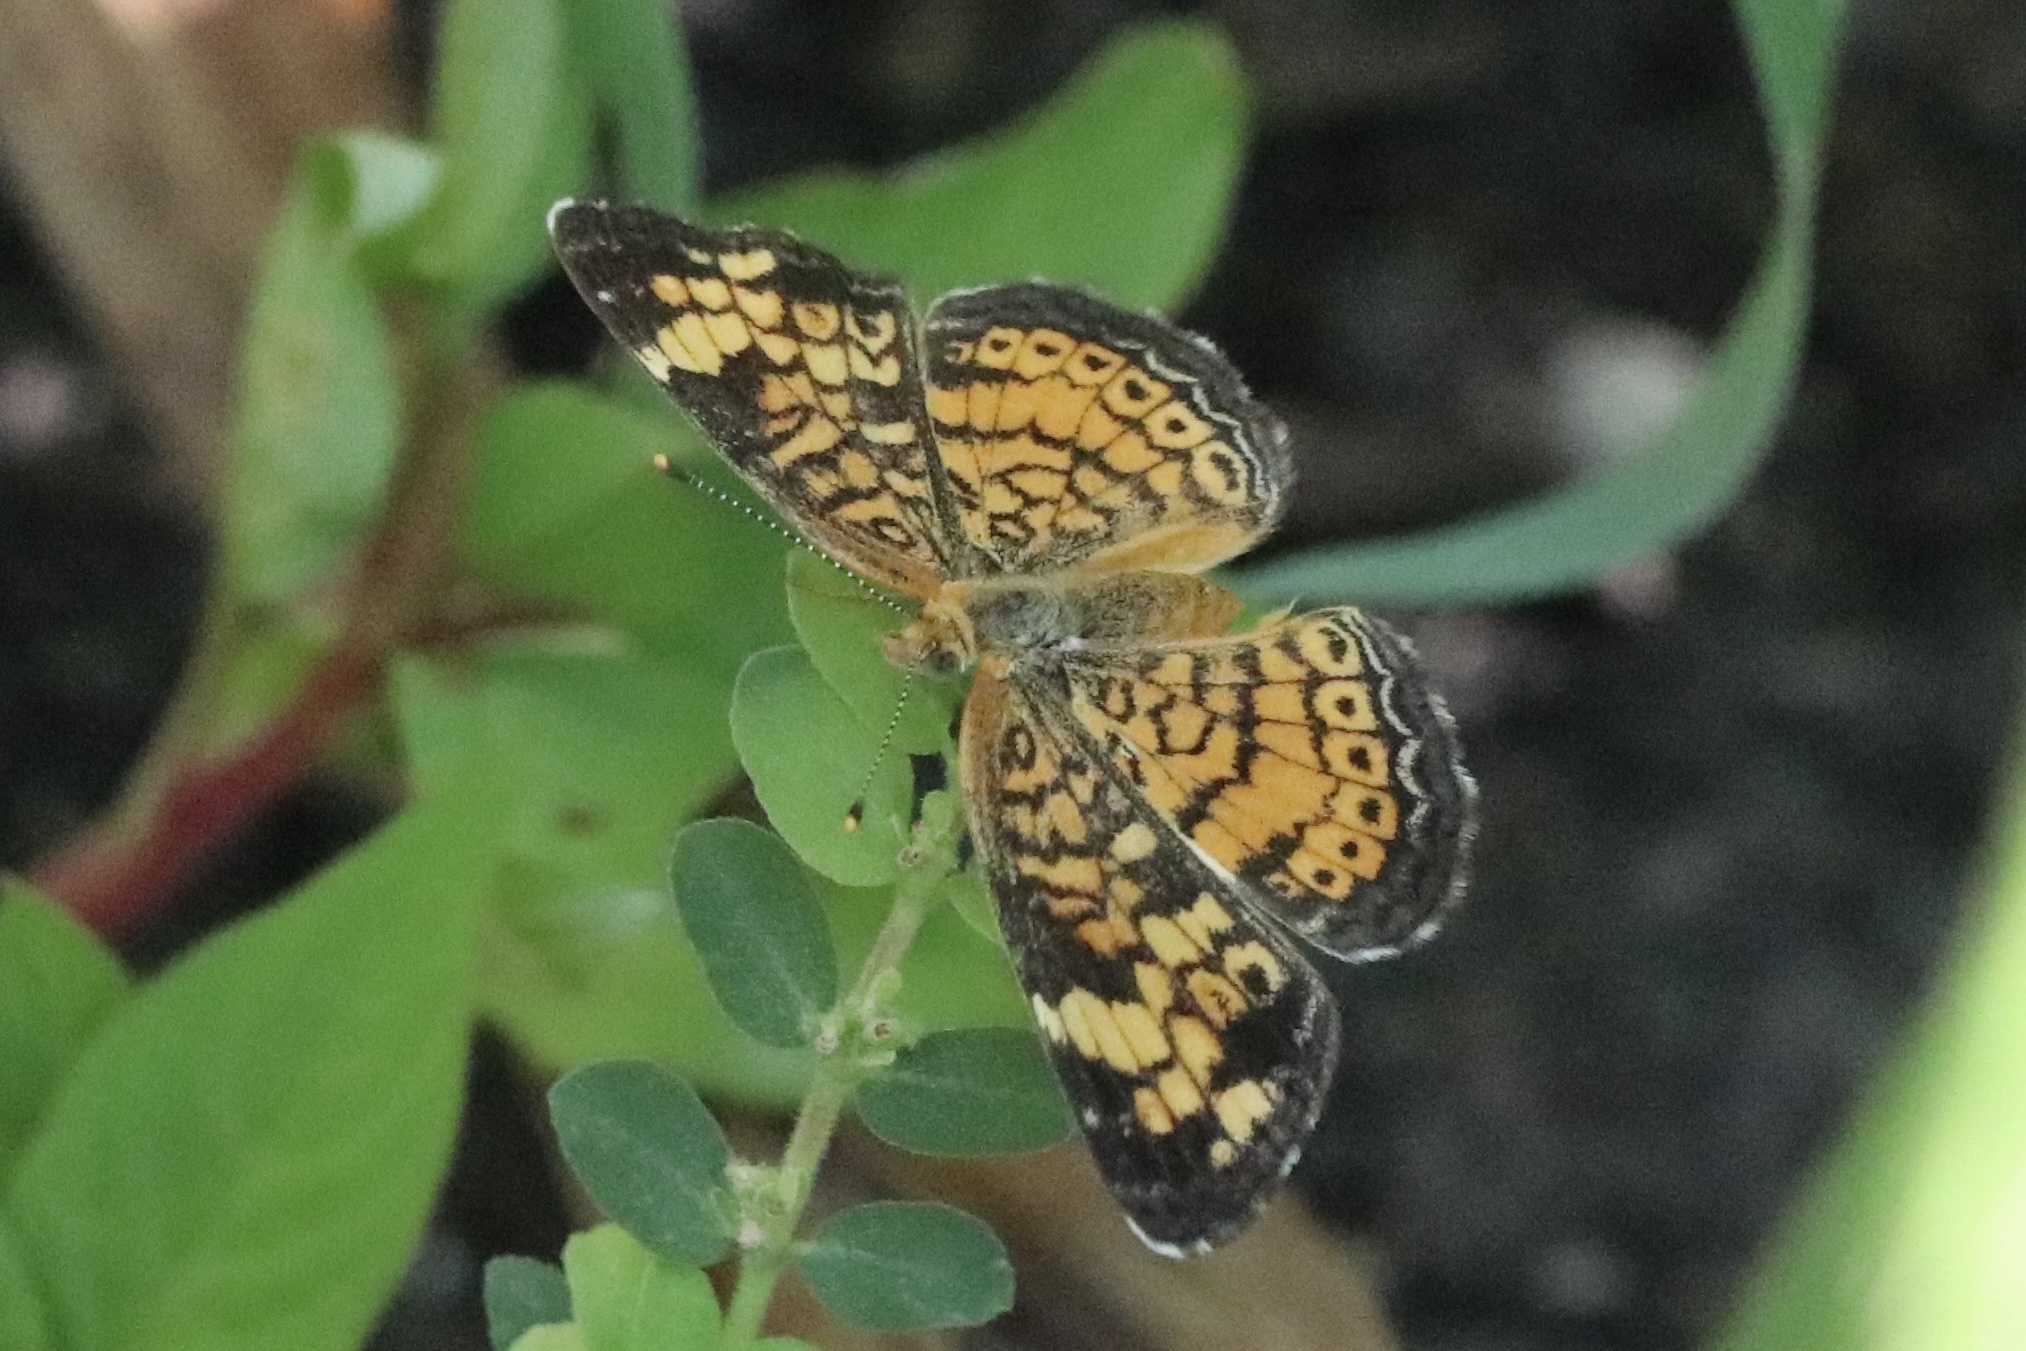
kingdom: Animalia
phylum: Arthropoda
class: Insecta
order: Lepidoptera
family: Nymphalidae
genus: Phyciodes
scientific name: Phyciodes tharos
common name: Pearl crescent
